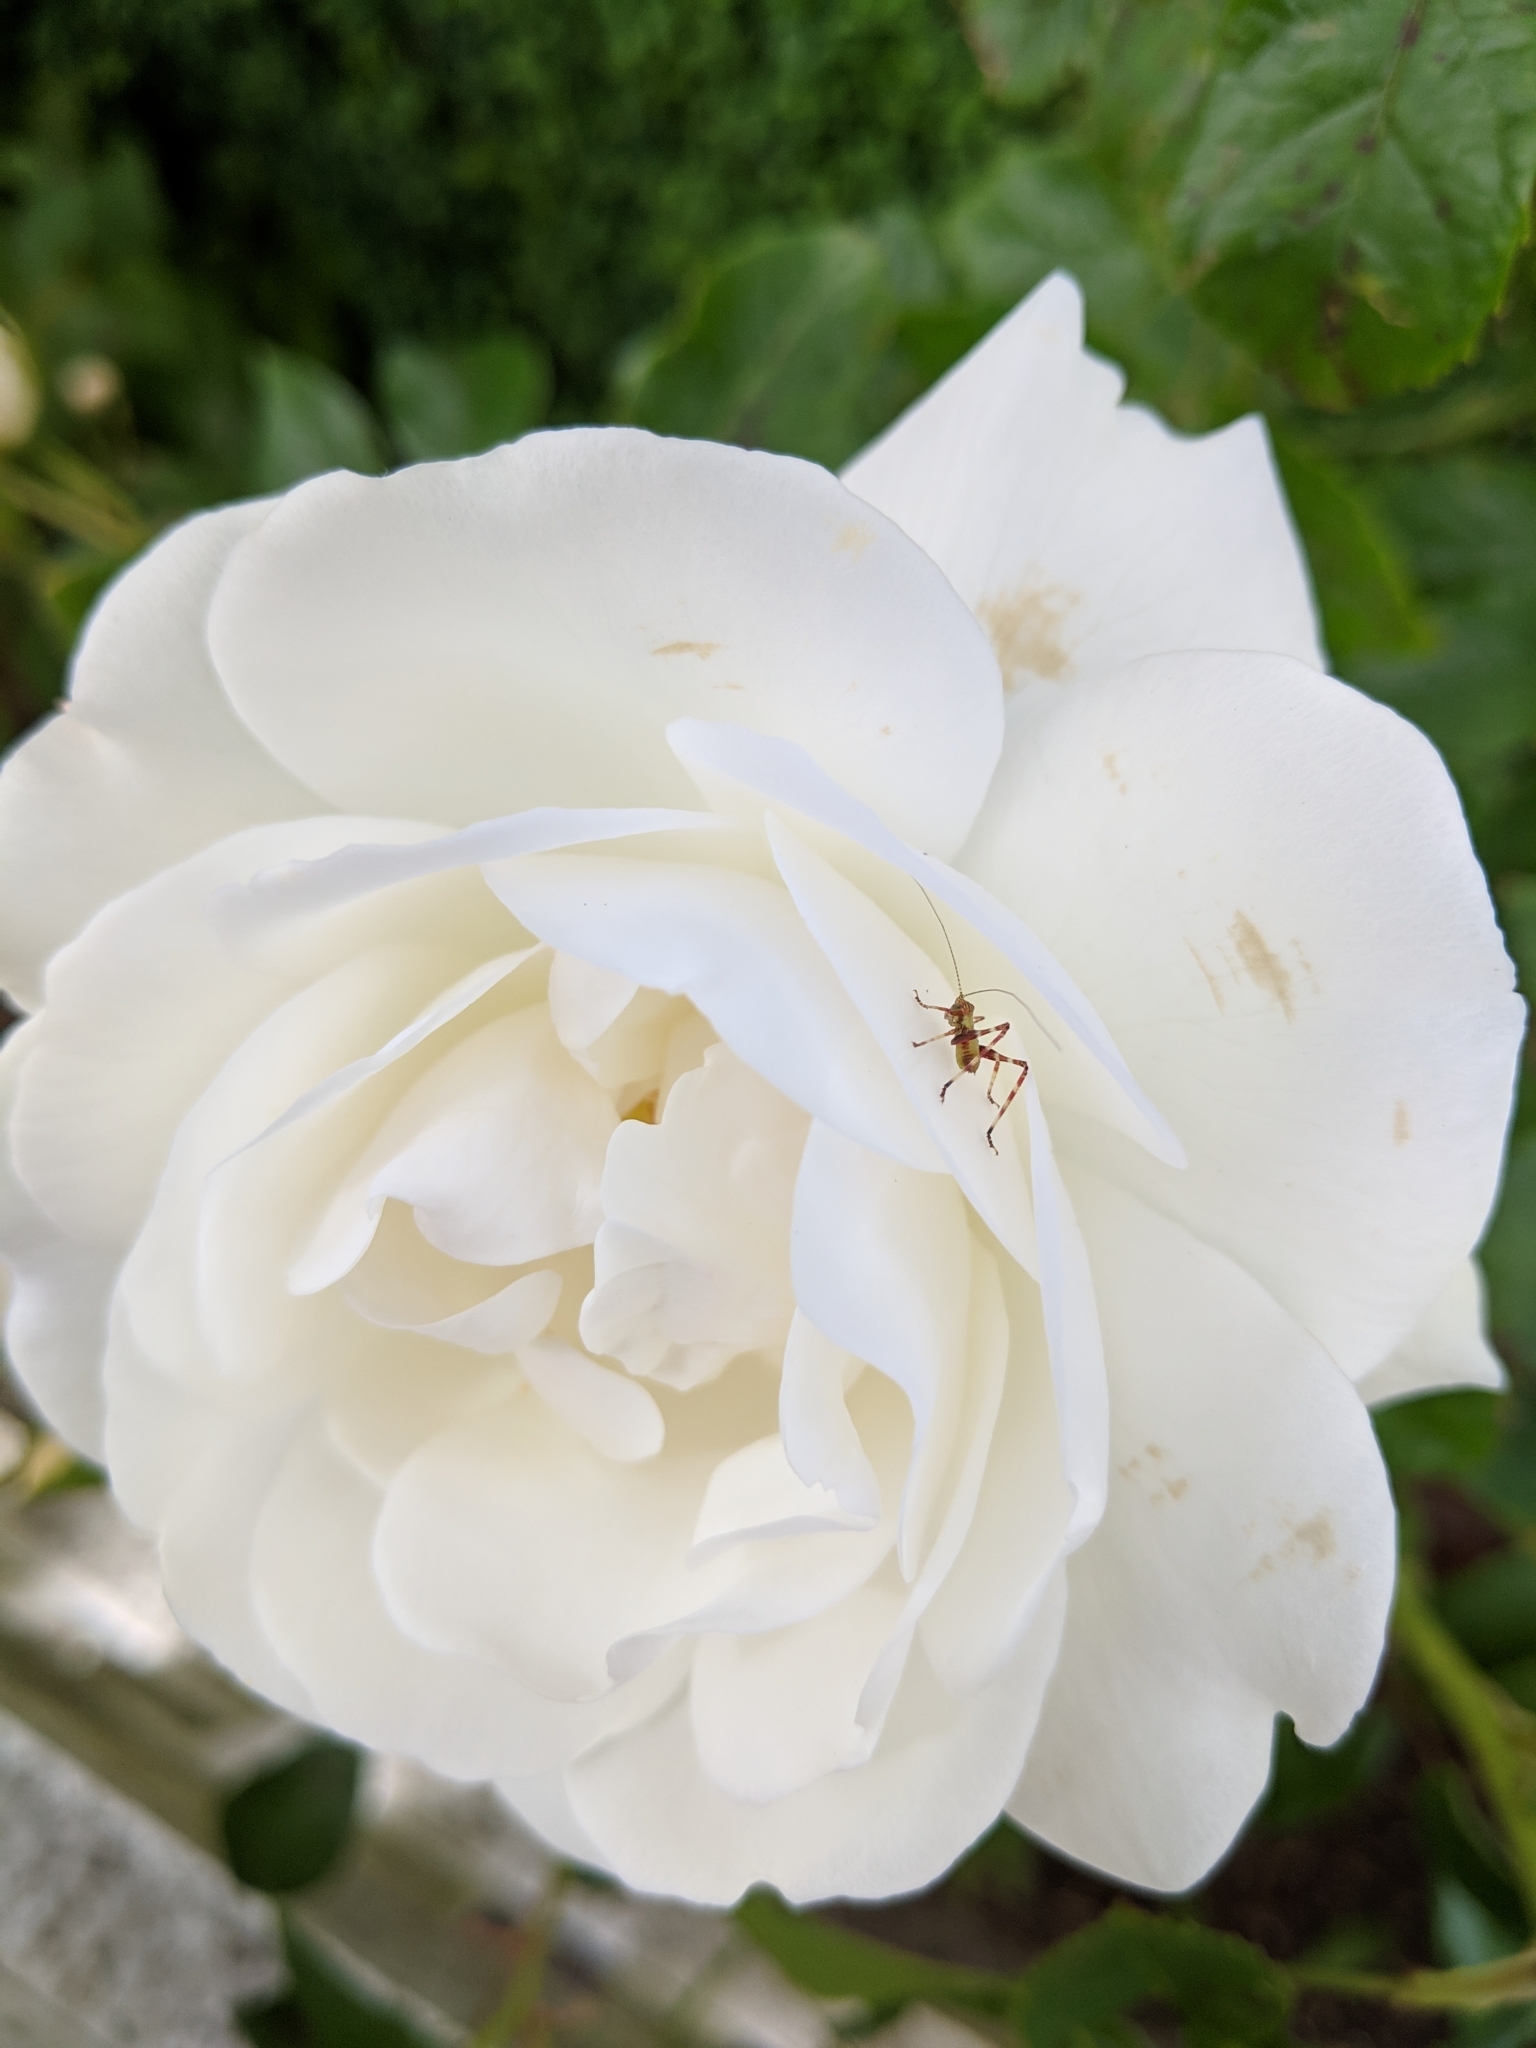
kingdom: Animalia
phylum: Arthropoda
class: Insecta
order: Orthoptera
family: Tettigoniidae
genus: Caedicia
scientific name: Caedicia simplex
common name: Common garden katydid
